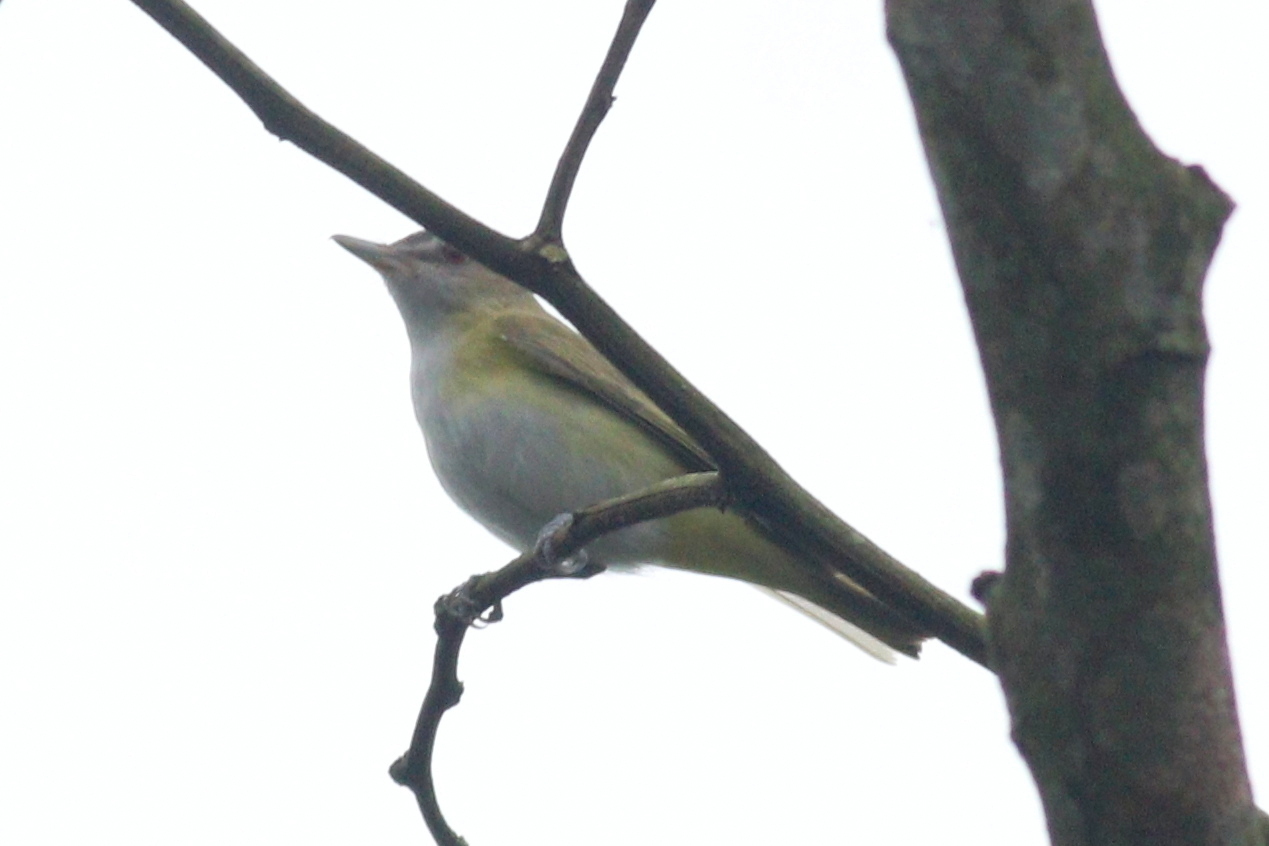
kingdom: Animalia
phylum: Chordata
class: Aves
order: Passeriformes
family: Vireonidae
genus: Vireo
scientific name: Vireo flavoviridis
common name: Yellow-green vireo
